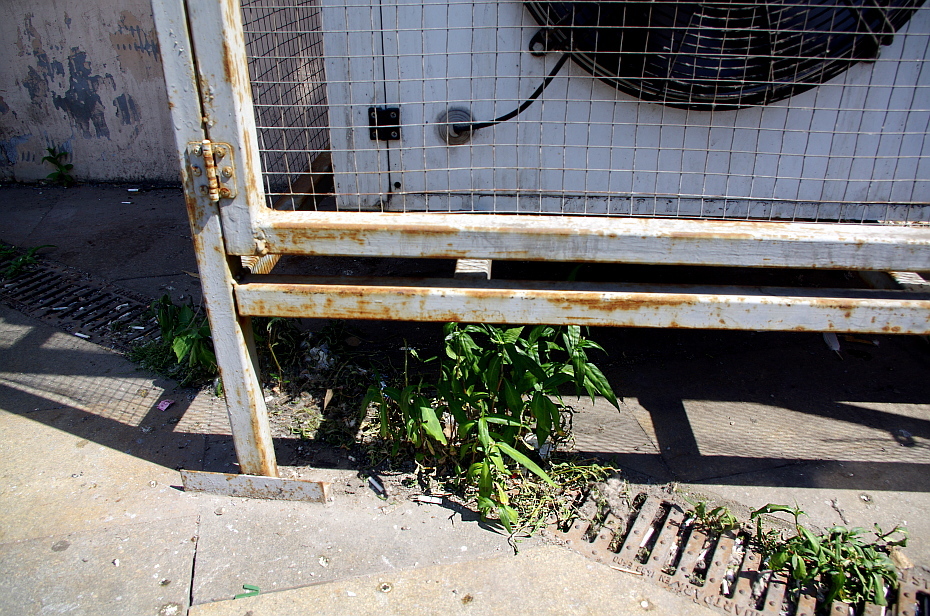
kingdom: Plantae
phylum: Tracheophyta
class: Magnoliopsida
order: Myrtales
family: Onagraceae
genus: Chamaenerion
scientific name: Chamaenerion angustifolium
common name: Fireweed
